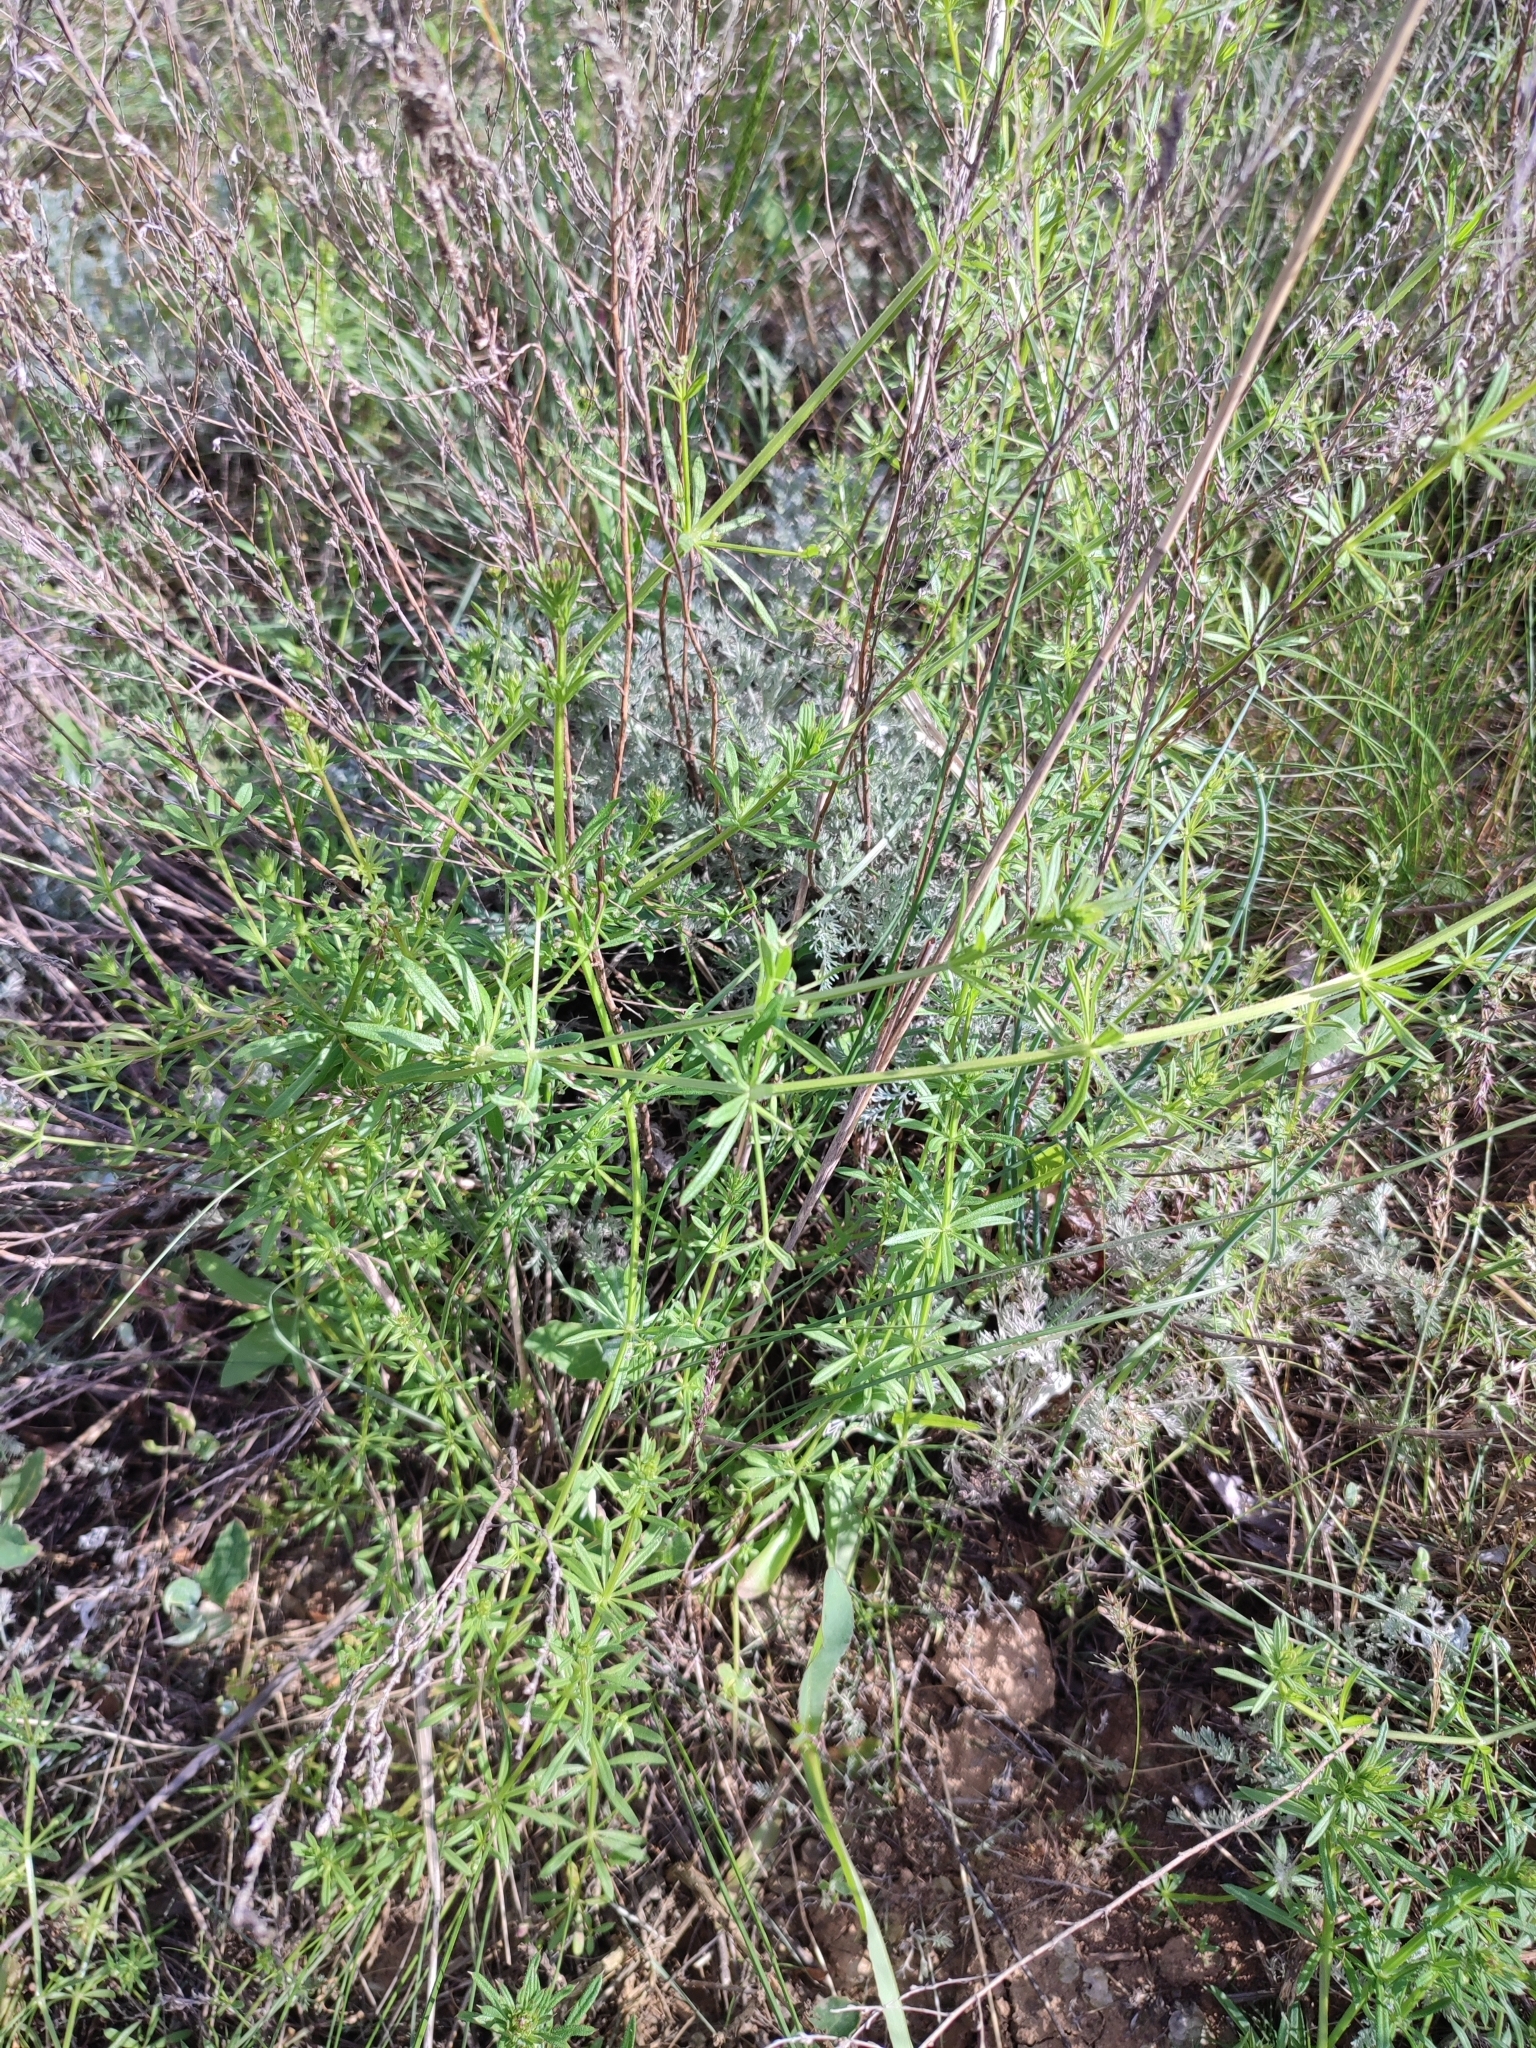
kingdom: Plantae
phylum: Tracheophyta
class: Magnoliopsida
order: Gentianales
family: Rubiaceae
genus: Galium
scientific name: Galium
